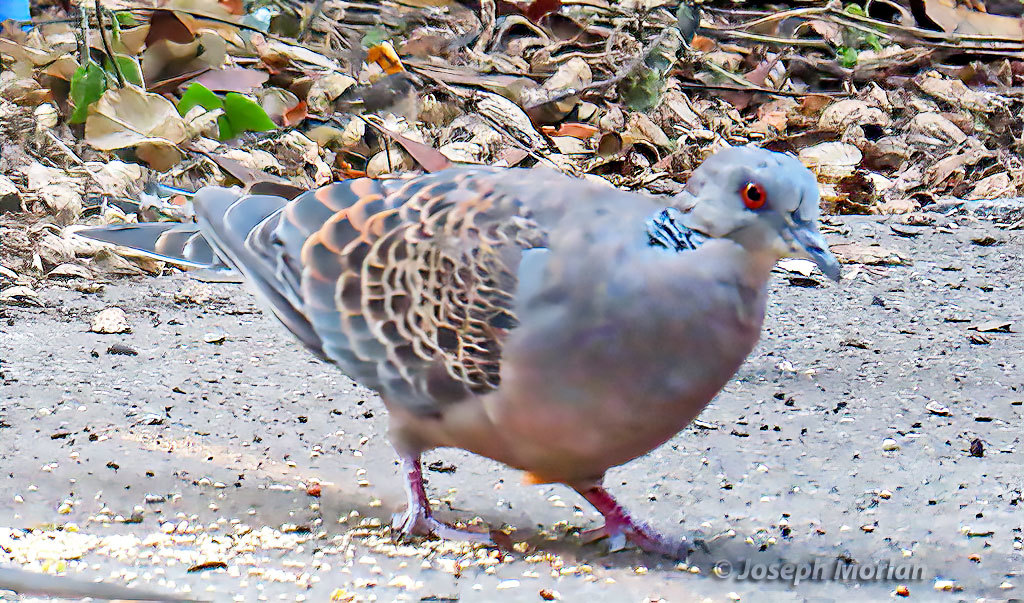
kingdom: Animalia
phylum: Chordata
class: Aves
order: Columbiformes
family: Columbidae
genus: Streptopelia
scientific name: Streptopelia orientalis
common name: Oriental turtle dove
